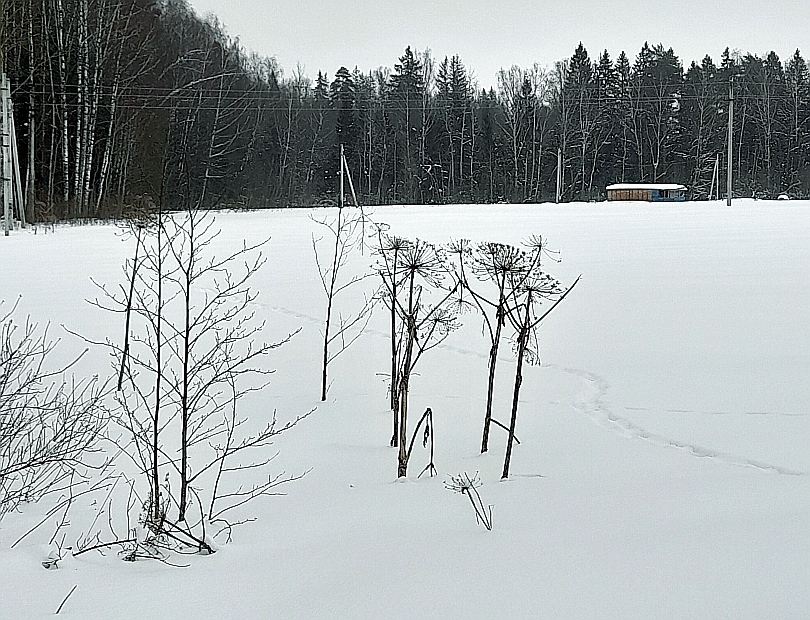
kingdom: Plantae
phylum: Tracheophyta
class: Magnoliopsida
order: Apiales
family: Apiaceae
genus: Heracleum
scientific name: Heracleum sosnowskyi
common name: Sosnowsky's hogweed
